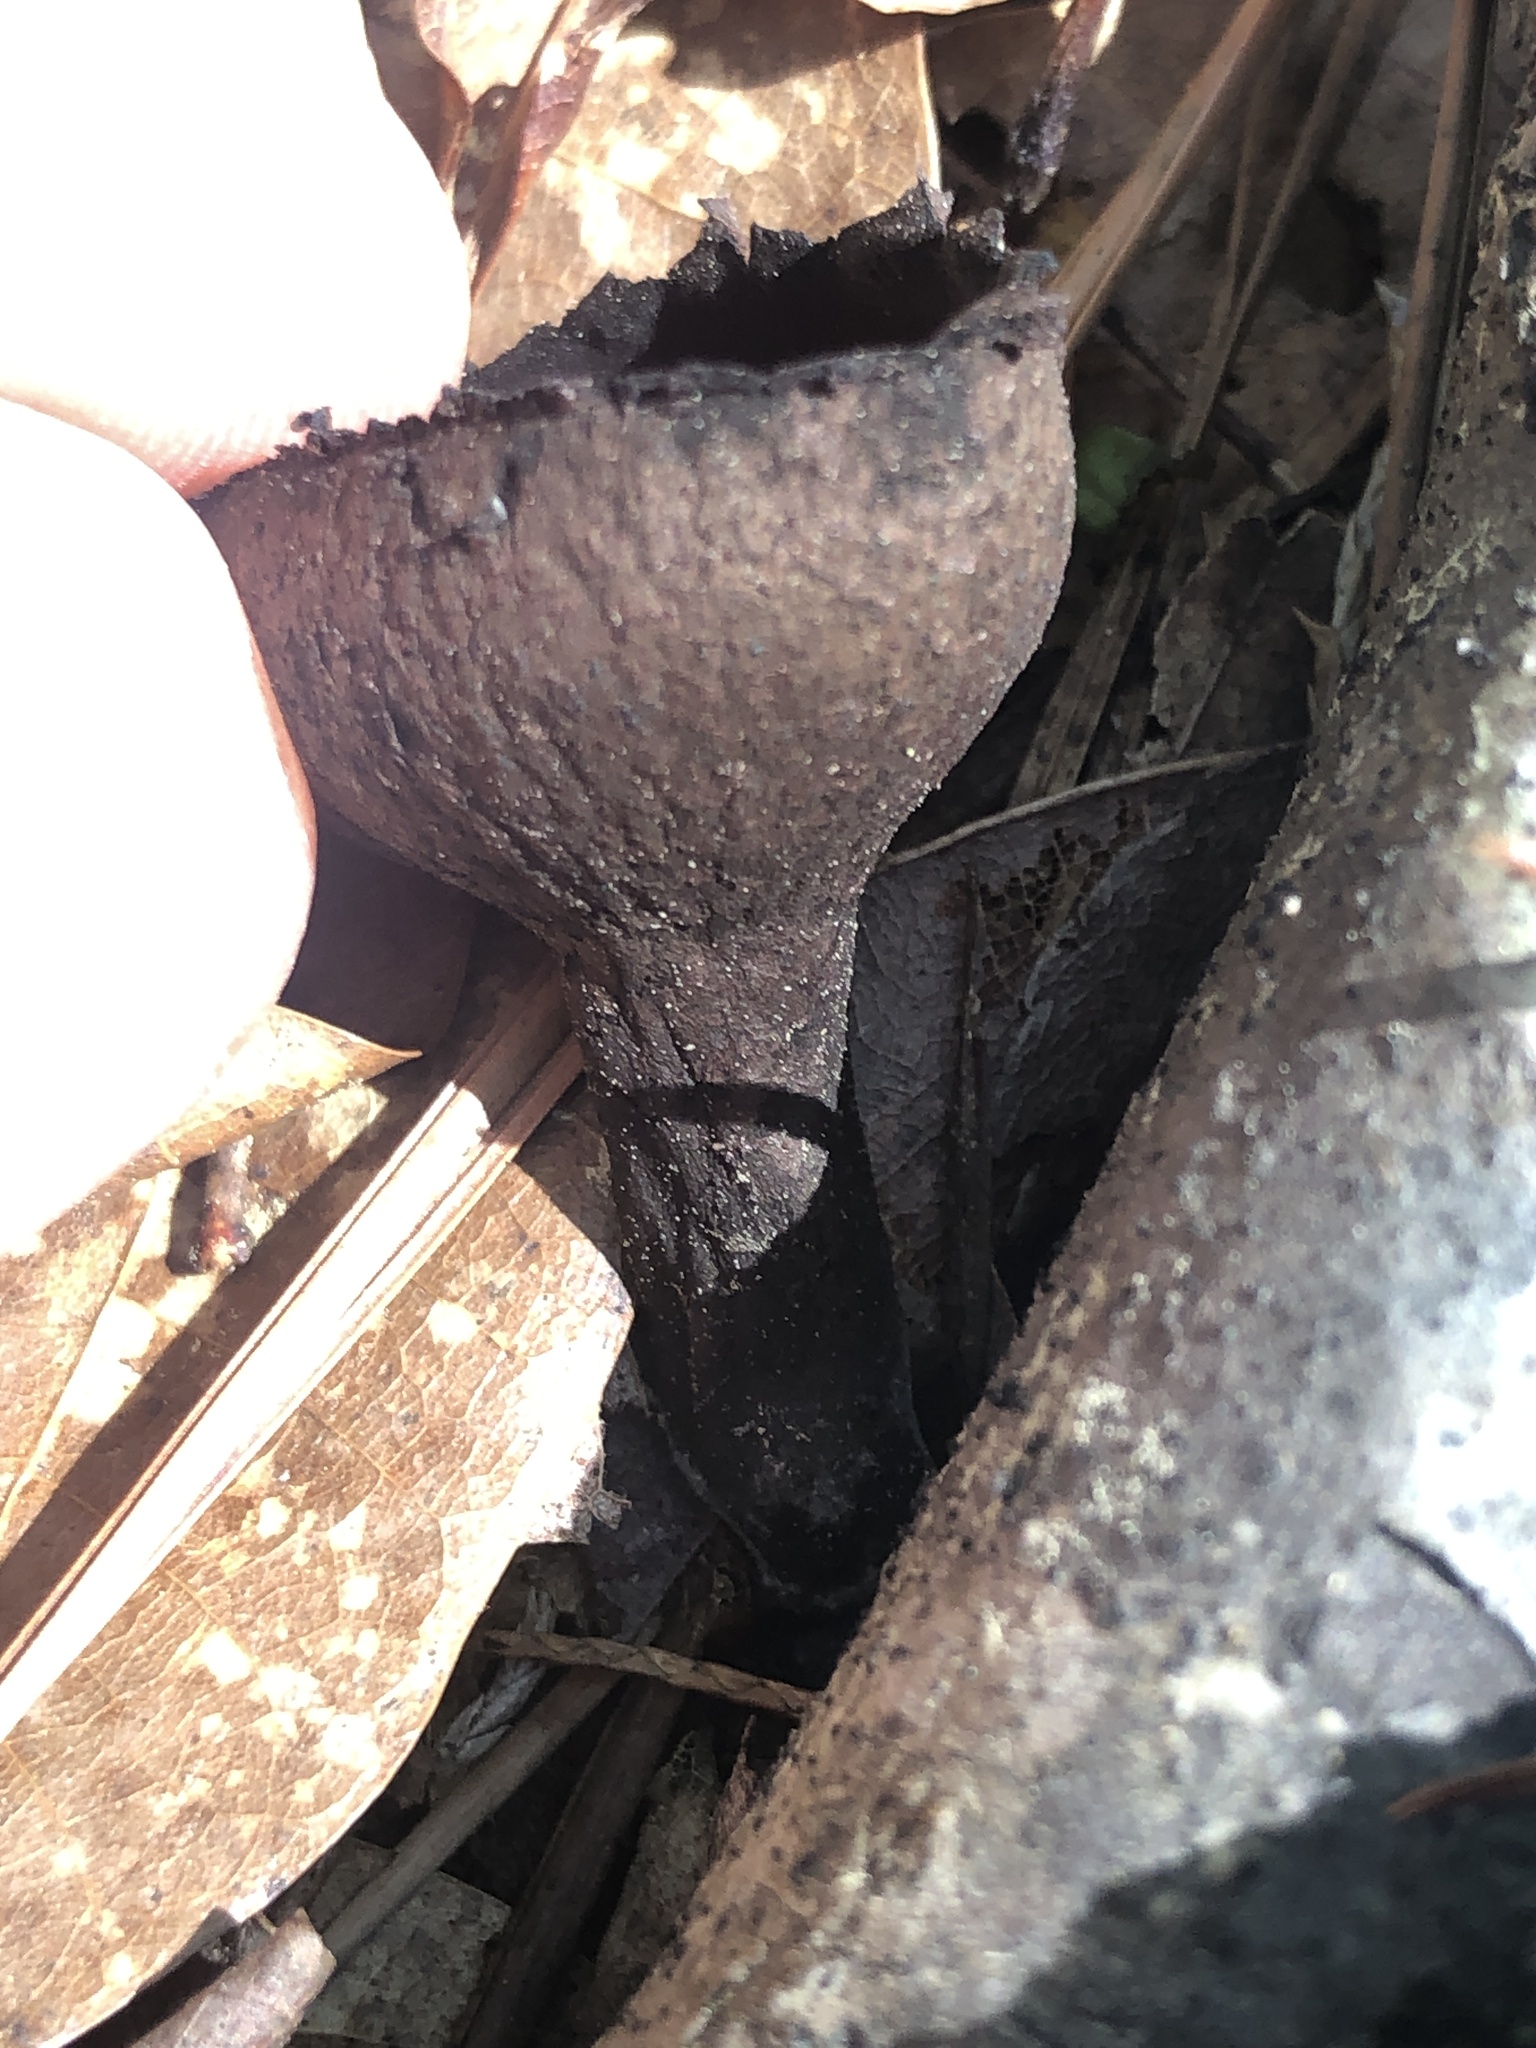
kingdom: Fungi
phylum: Ascomycota
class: Pezizomycetes
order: Pezizales
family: Sarcosomataceae
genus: Urnula
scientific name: Urnula craterium
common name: Devil's urn
